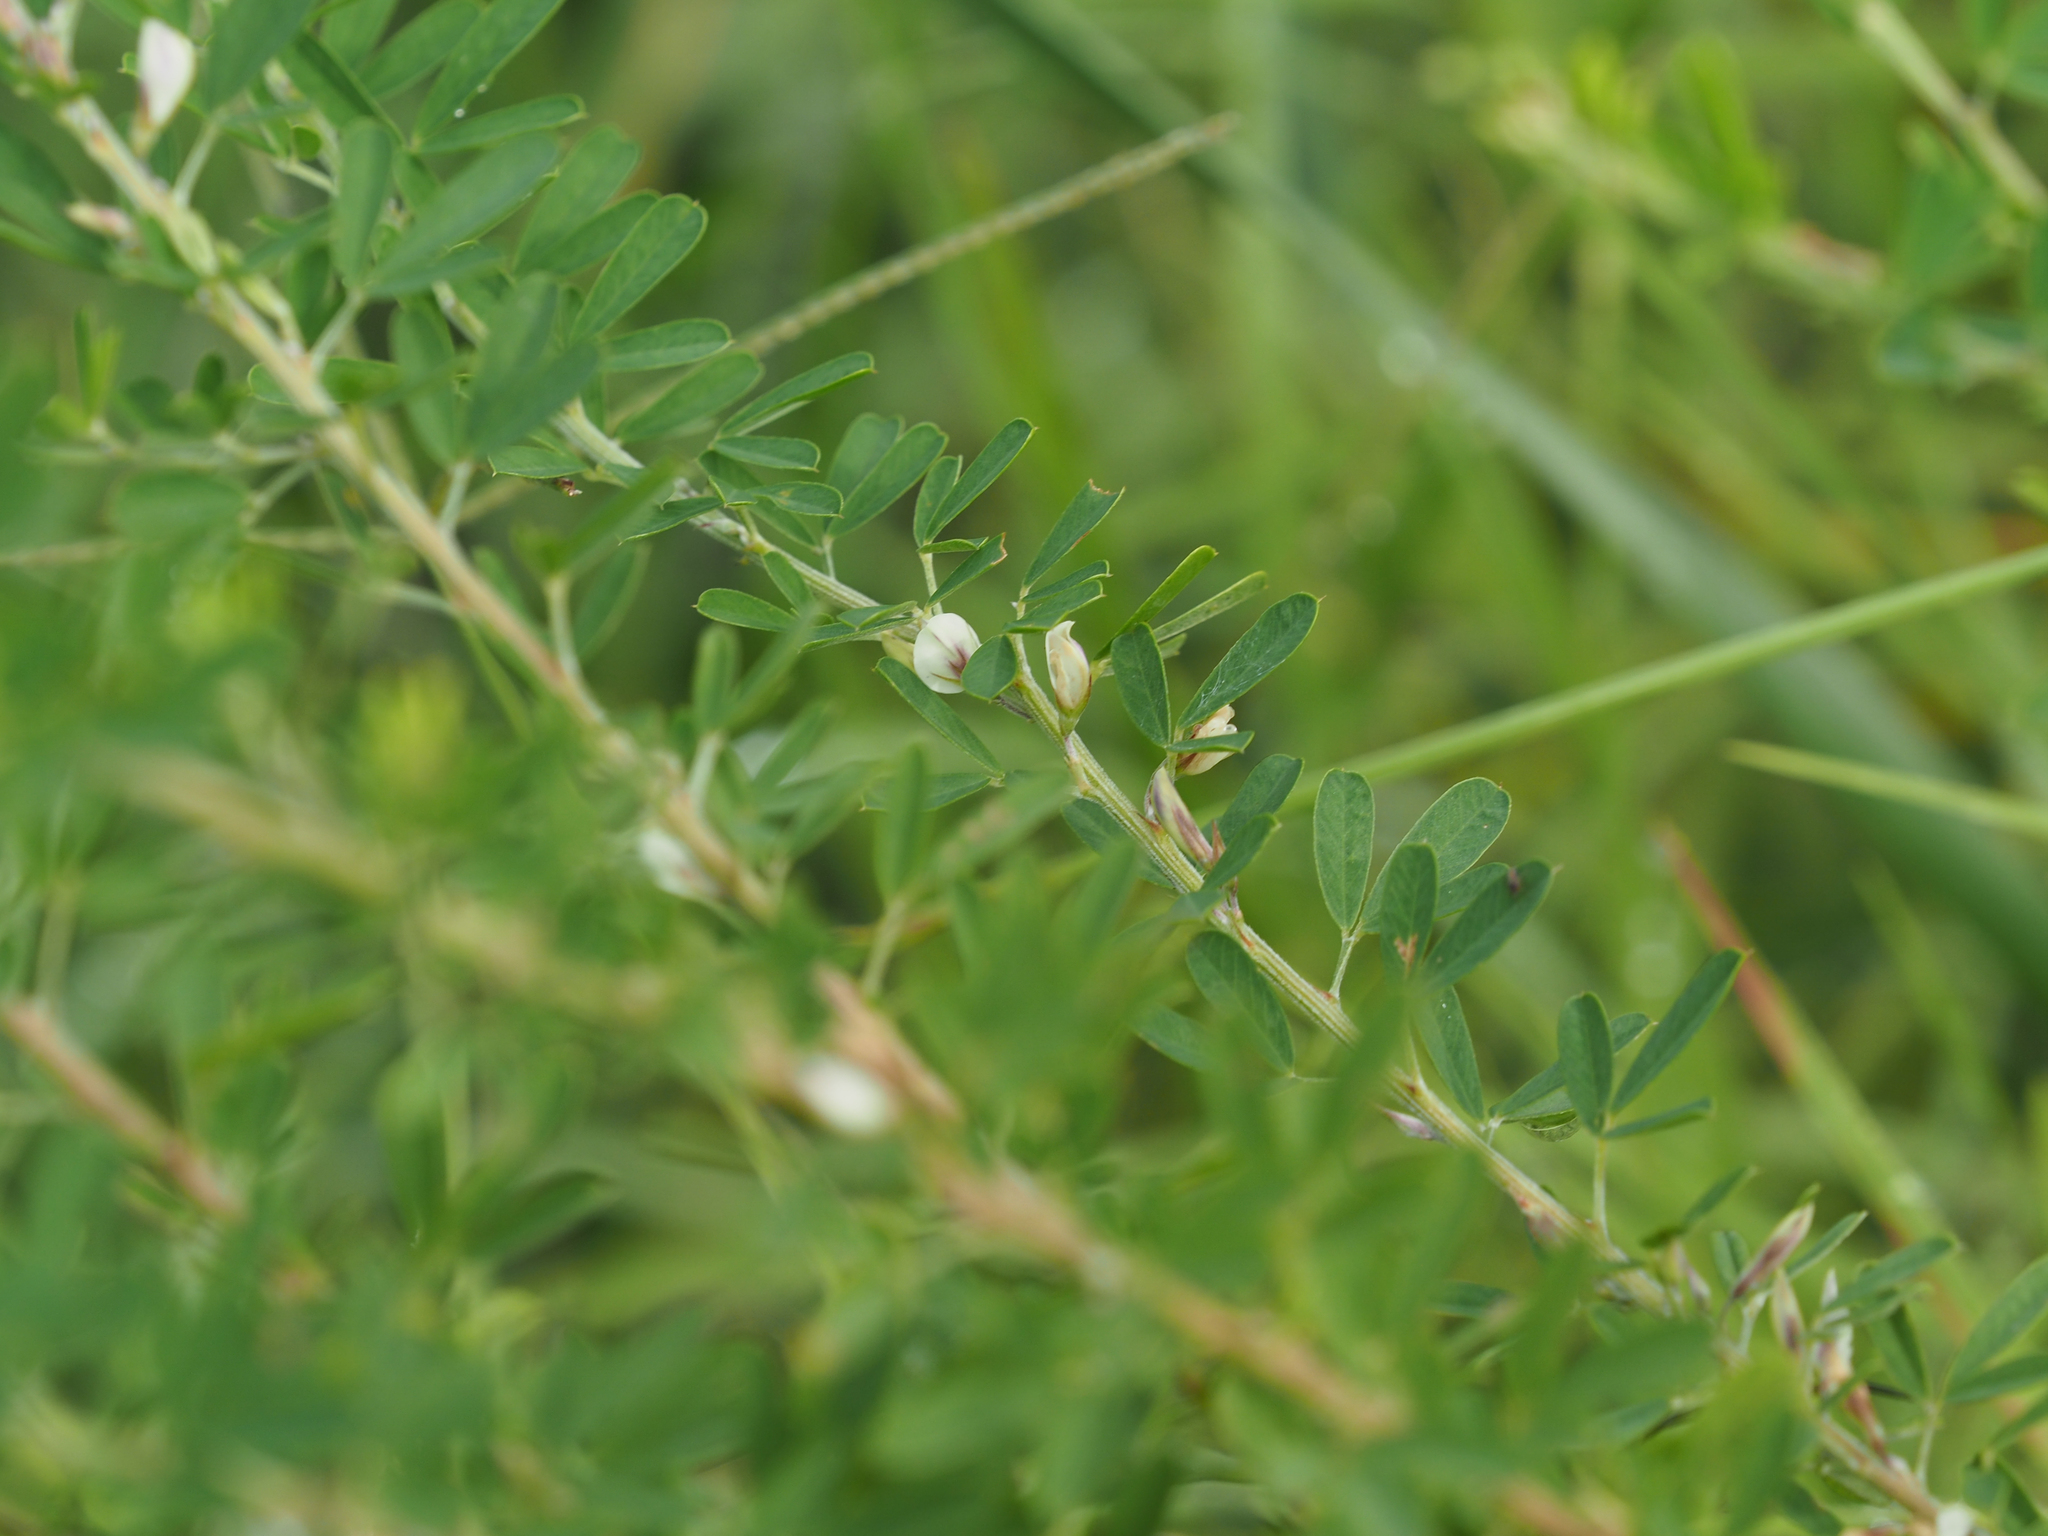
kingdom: Plantae
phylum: Tracheophyta
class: Magnoliopsida
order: Fabales
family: Fabaceae
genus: Lespedeza
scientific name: Lespedeza cuneata
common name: Chinese bush-clover
